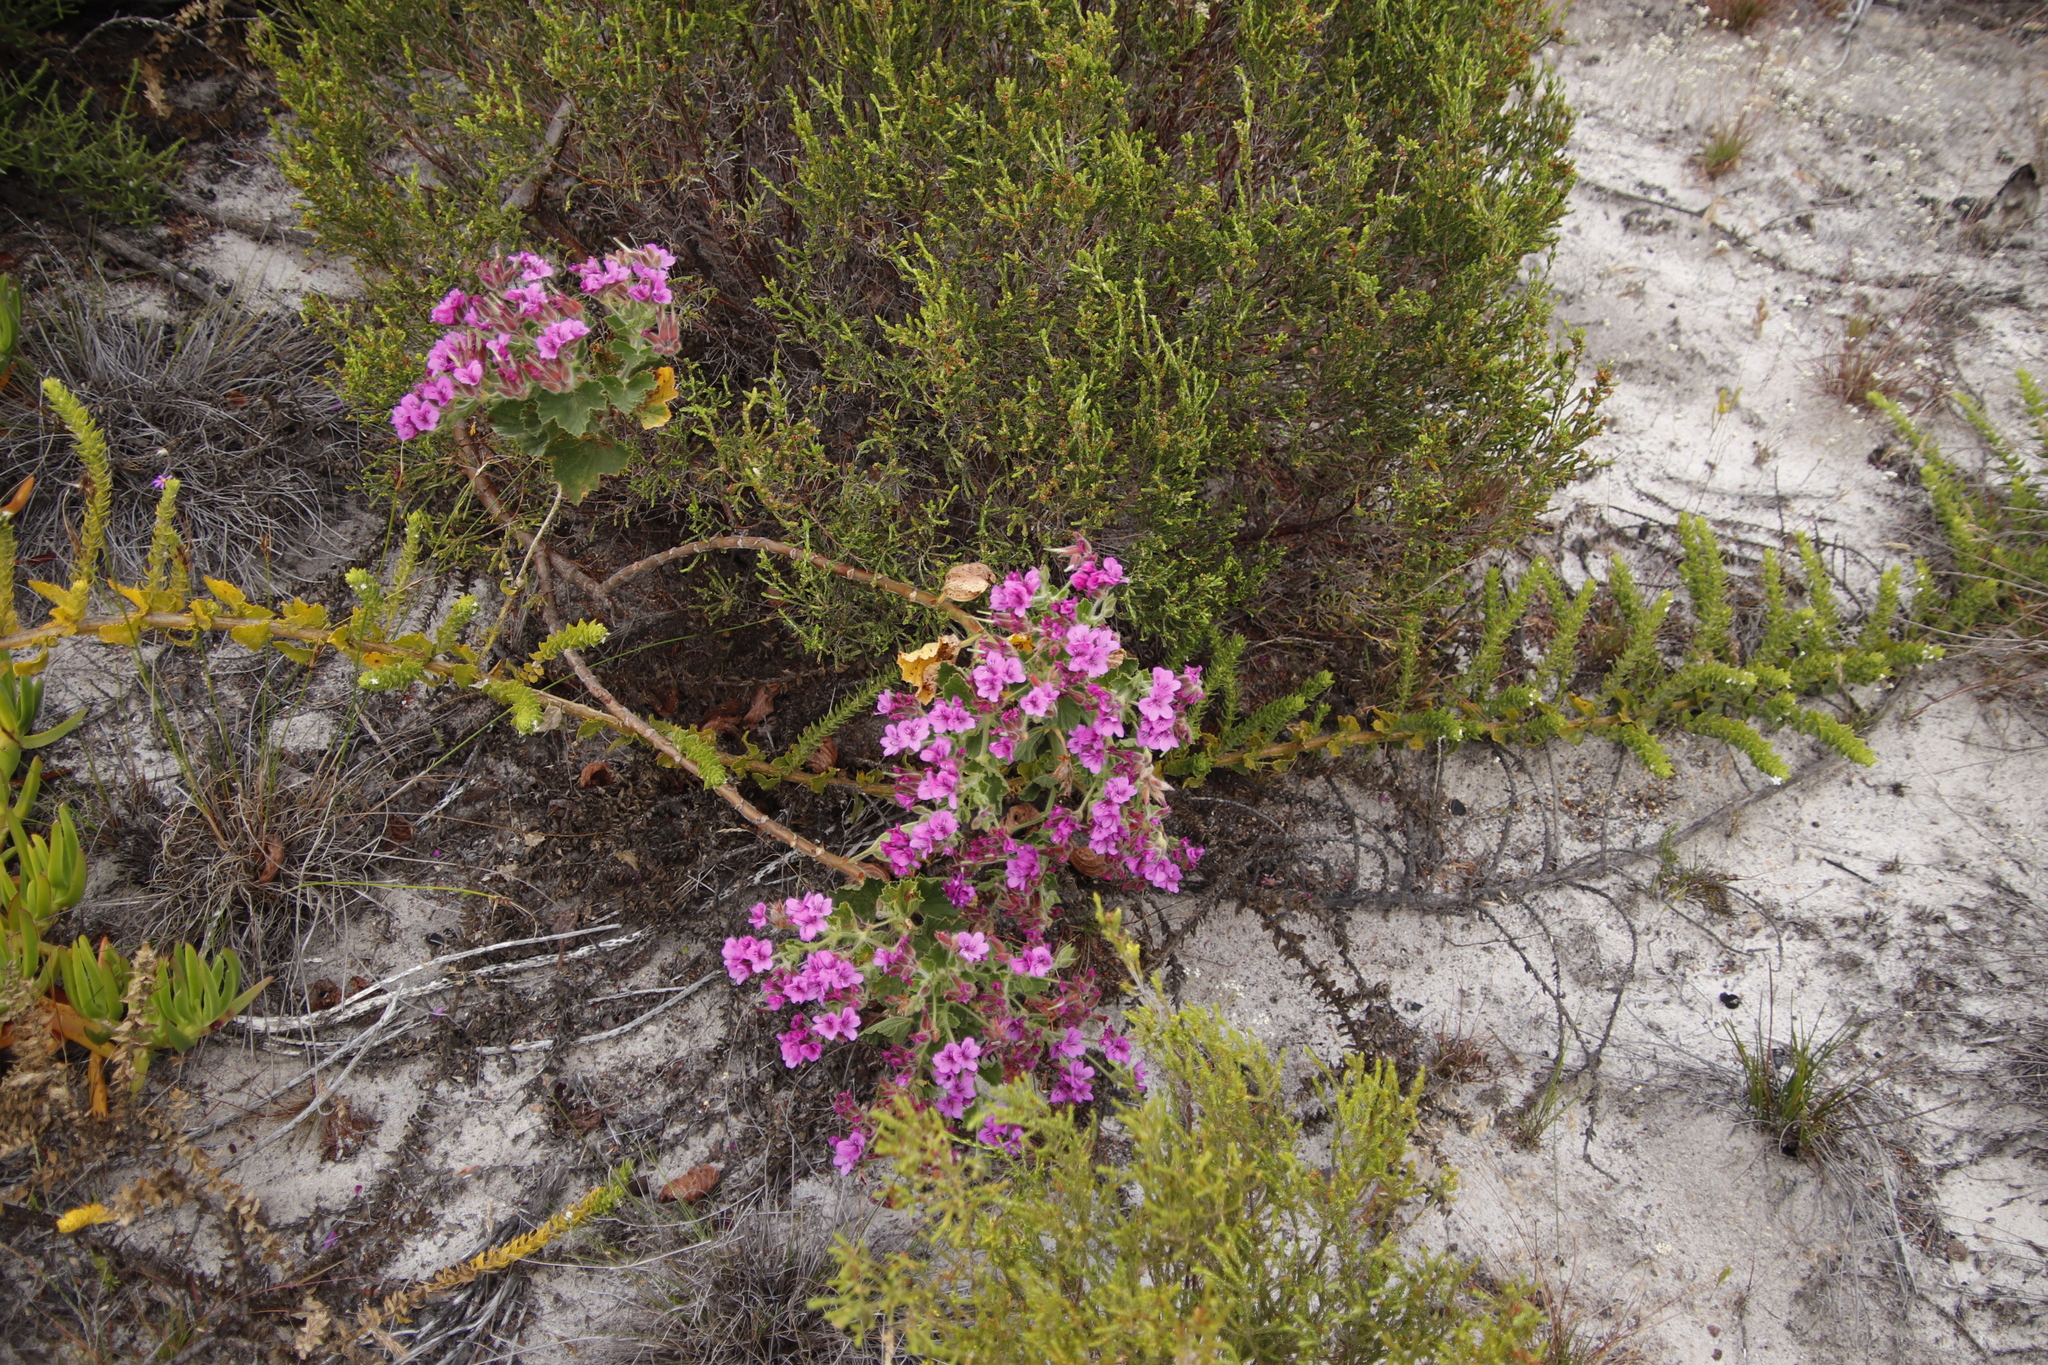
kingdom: Plantae
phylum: Tracheophyta
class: Magnoliopsida
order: Geraniales
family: Geraniaceae
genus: Pelargonium
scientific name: Pelargonium cucullatum
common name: Tree pelargonium
